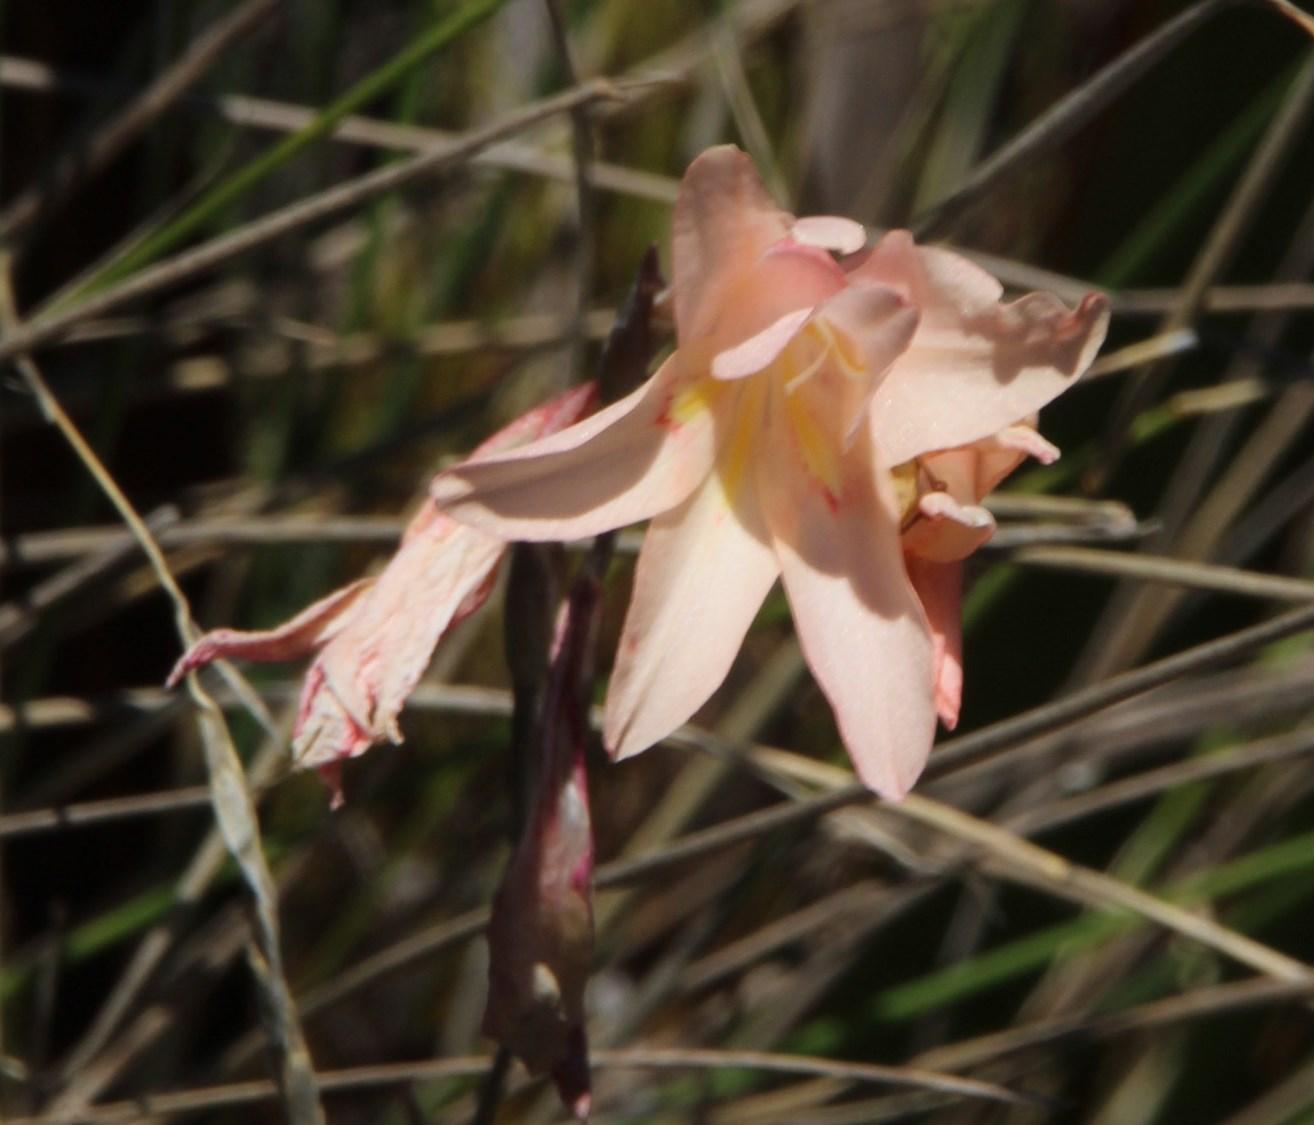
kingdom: Plantae
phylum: Tracheophyta
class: Liliopsida
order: Asparagales
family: Iridaceae
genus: Gladiolus
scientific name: Gladiolus monticola
